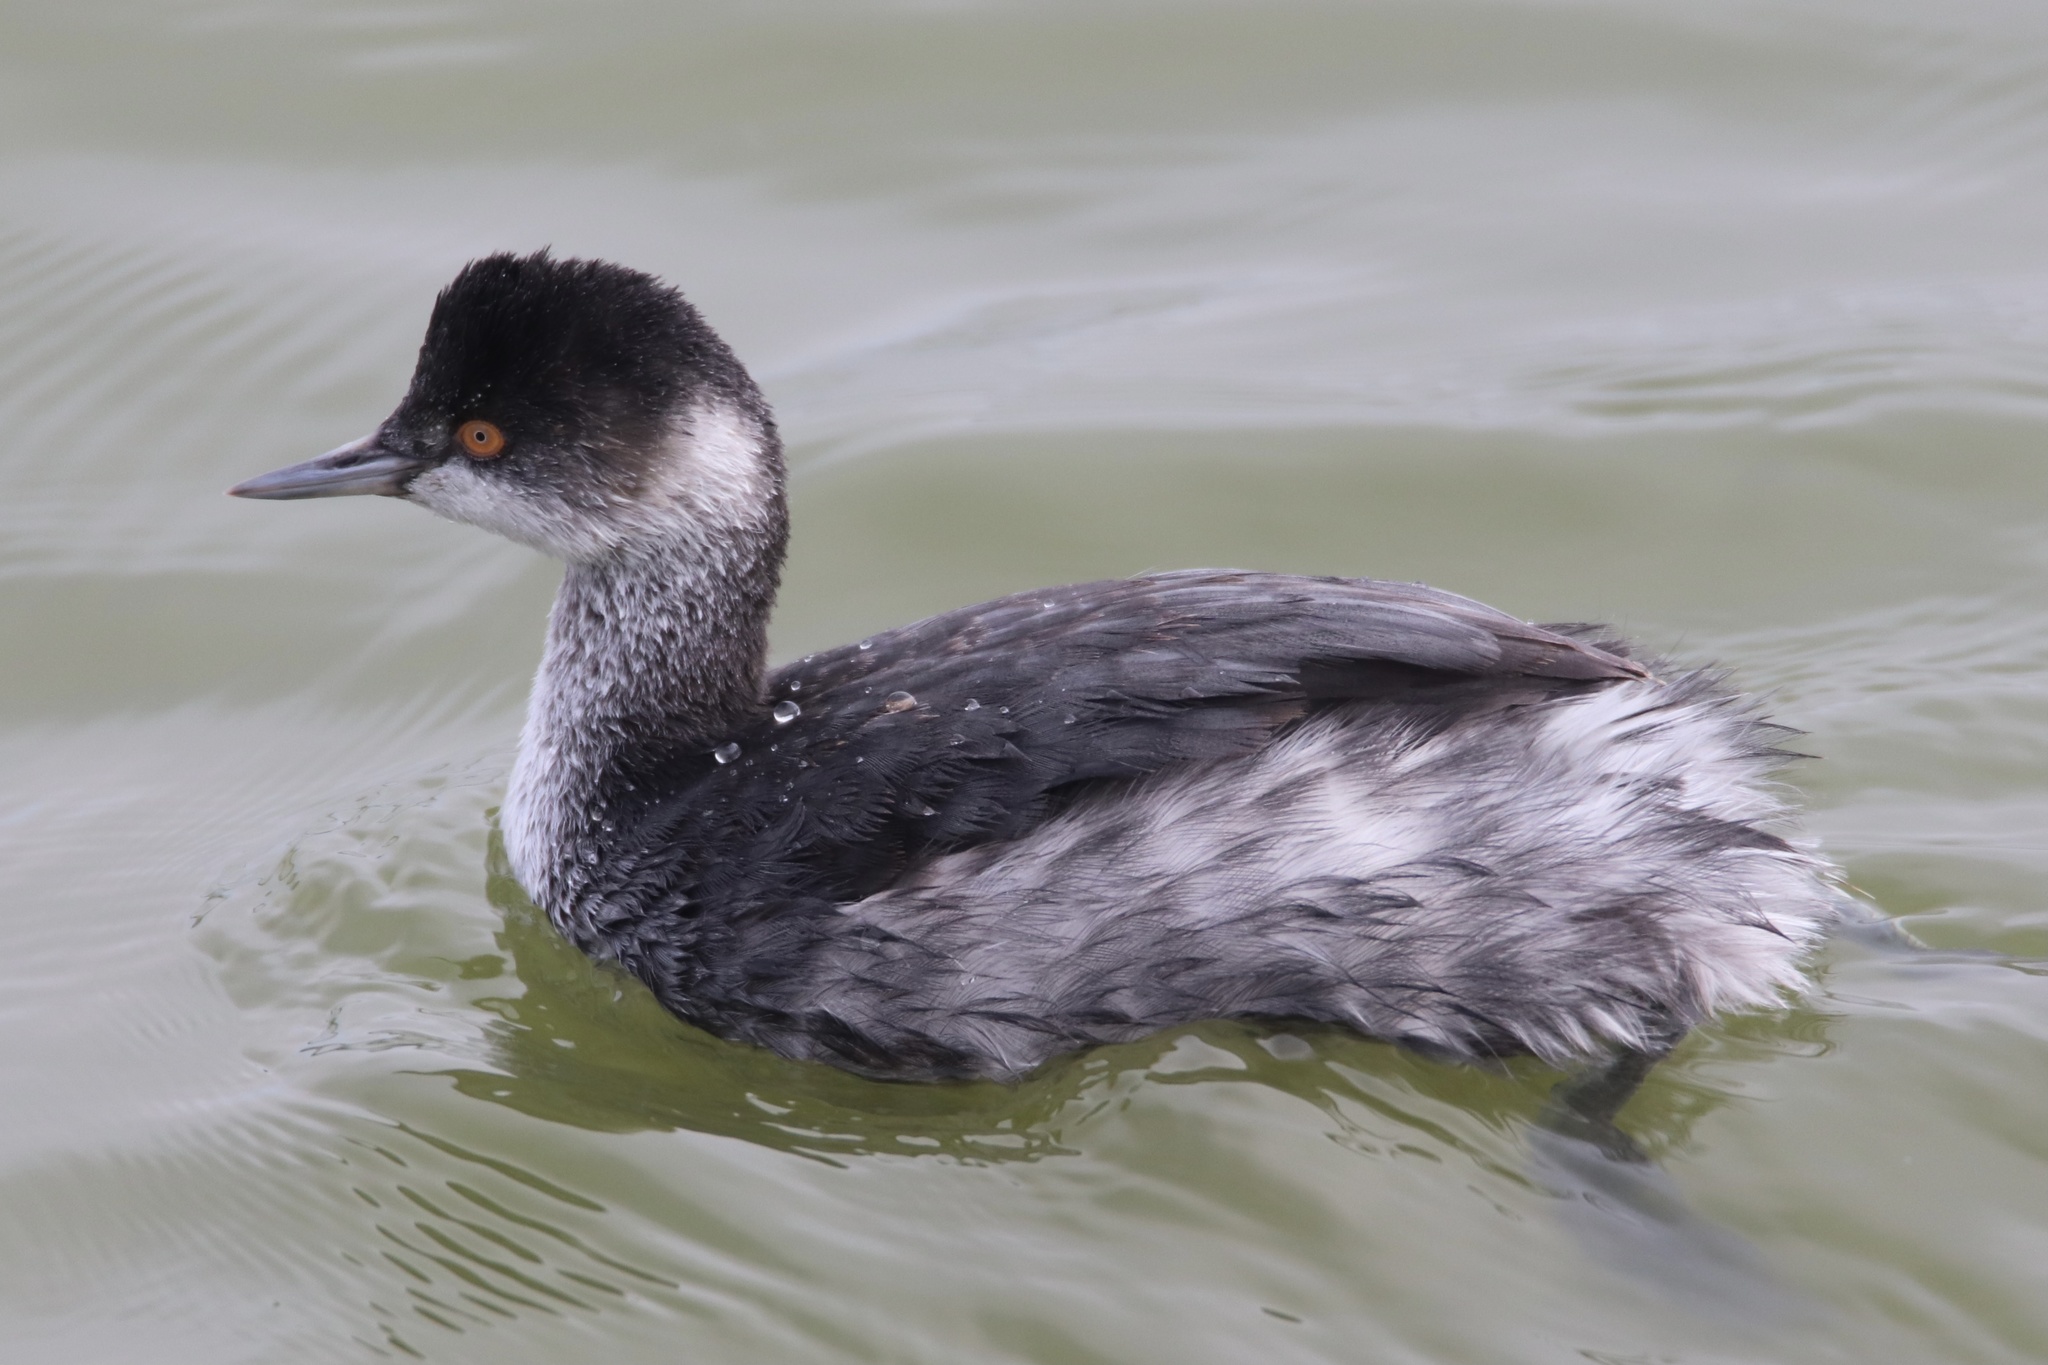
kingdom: Animalia
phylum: Chordata
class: Aves
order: Podicipediformes
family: Podicipedidae
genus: Podiceps
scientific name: Podiceps nigricollis
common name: Black-necked grebe
